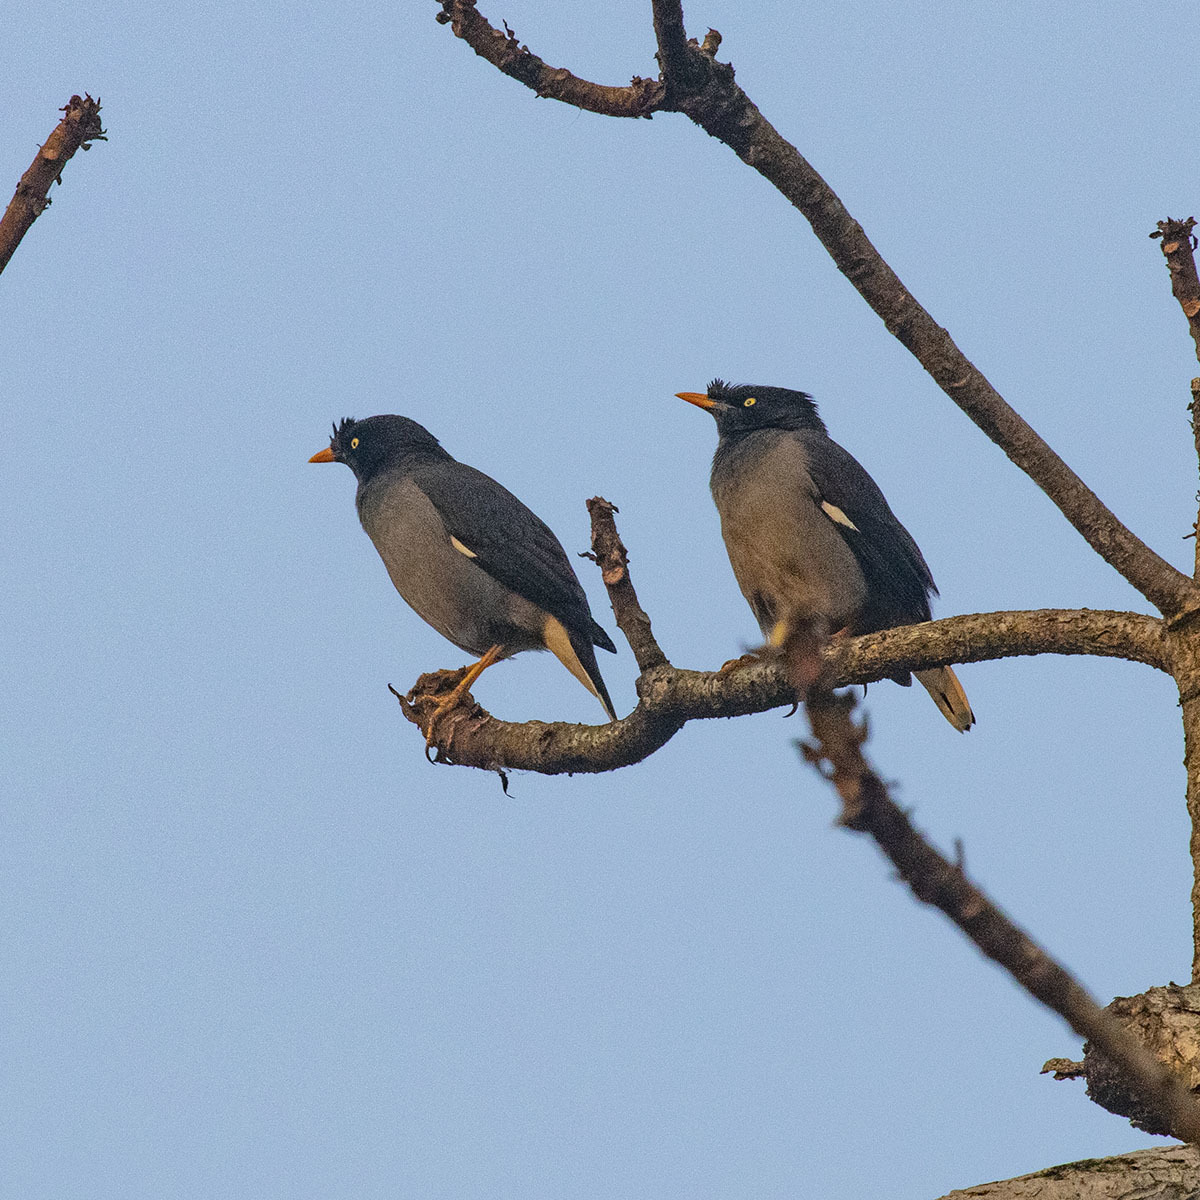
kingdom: Animalia
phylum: Chordata
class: Aves
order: Passeriformes
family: Sturnidae
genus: Acridotheres
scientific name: Acridotheres fuscus
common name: Jungle myna
